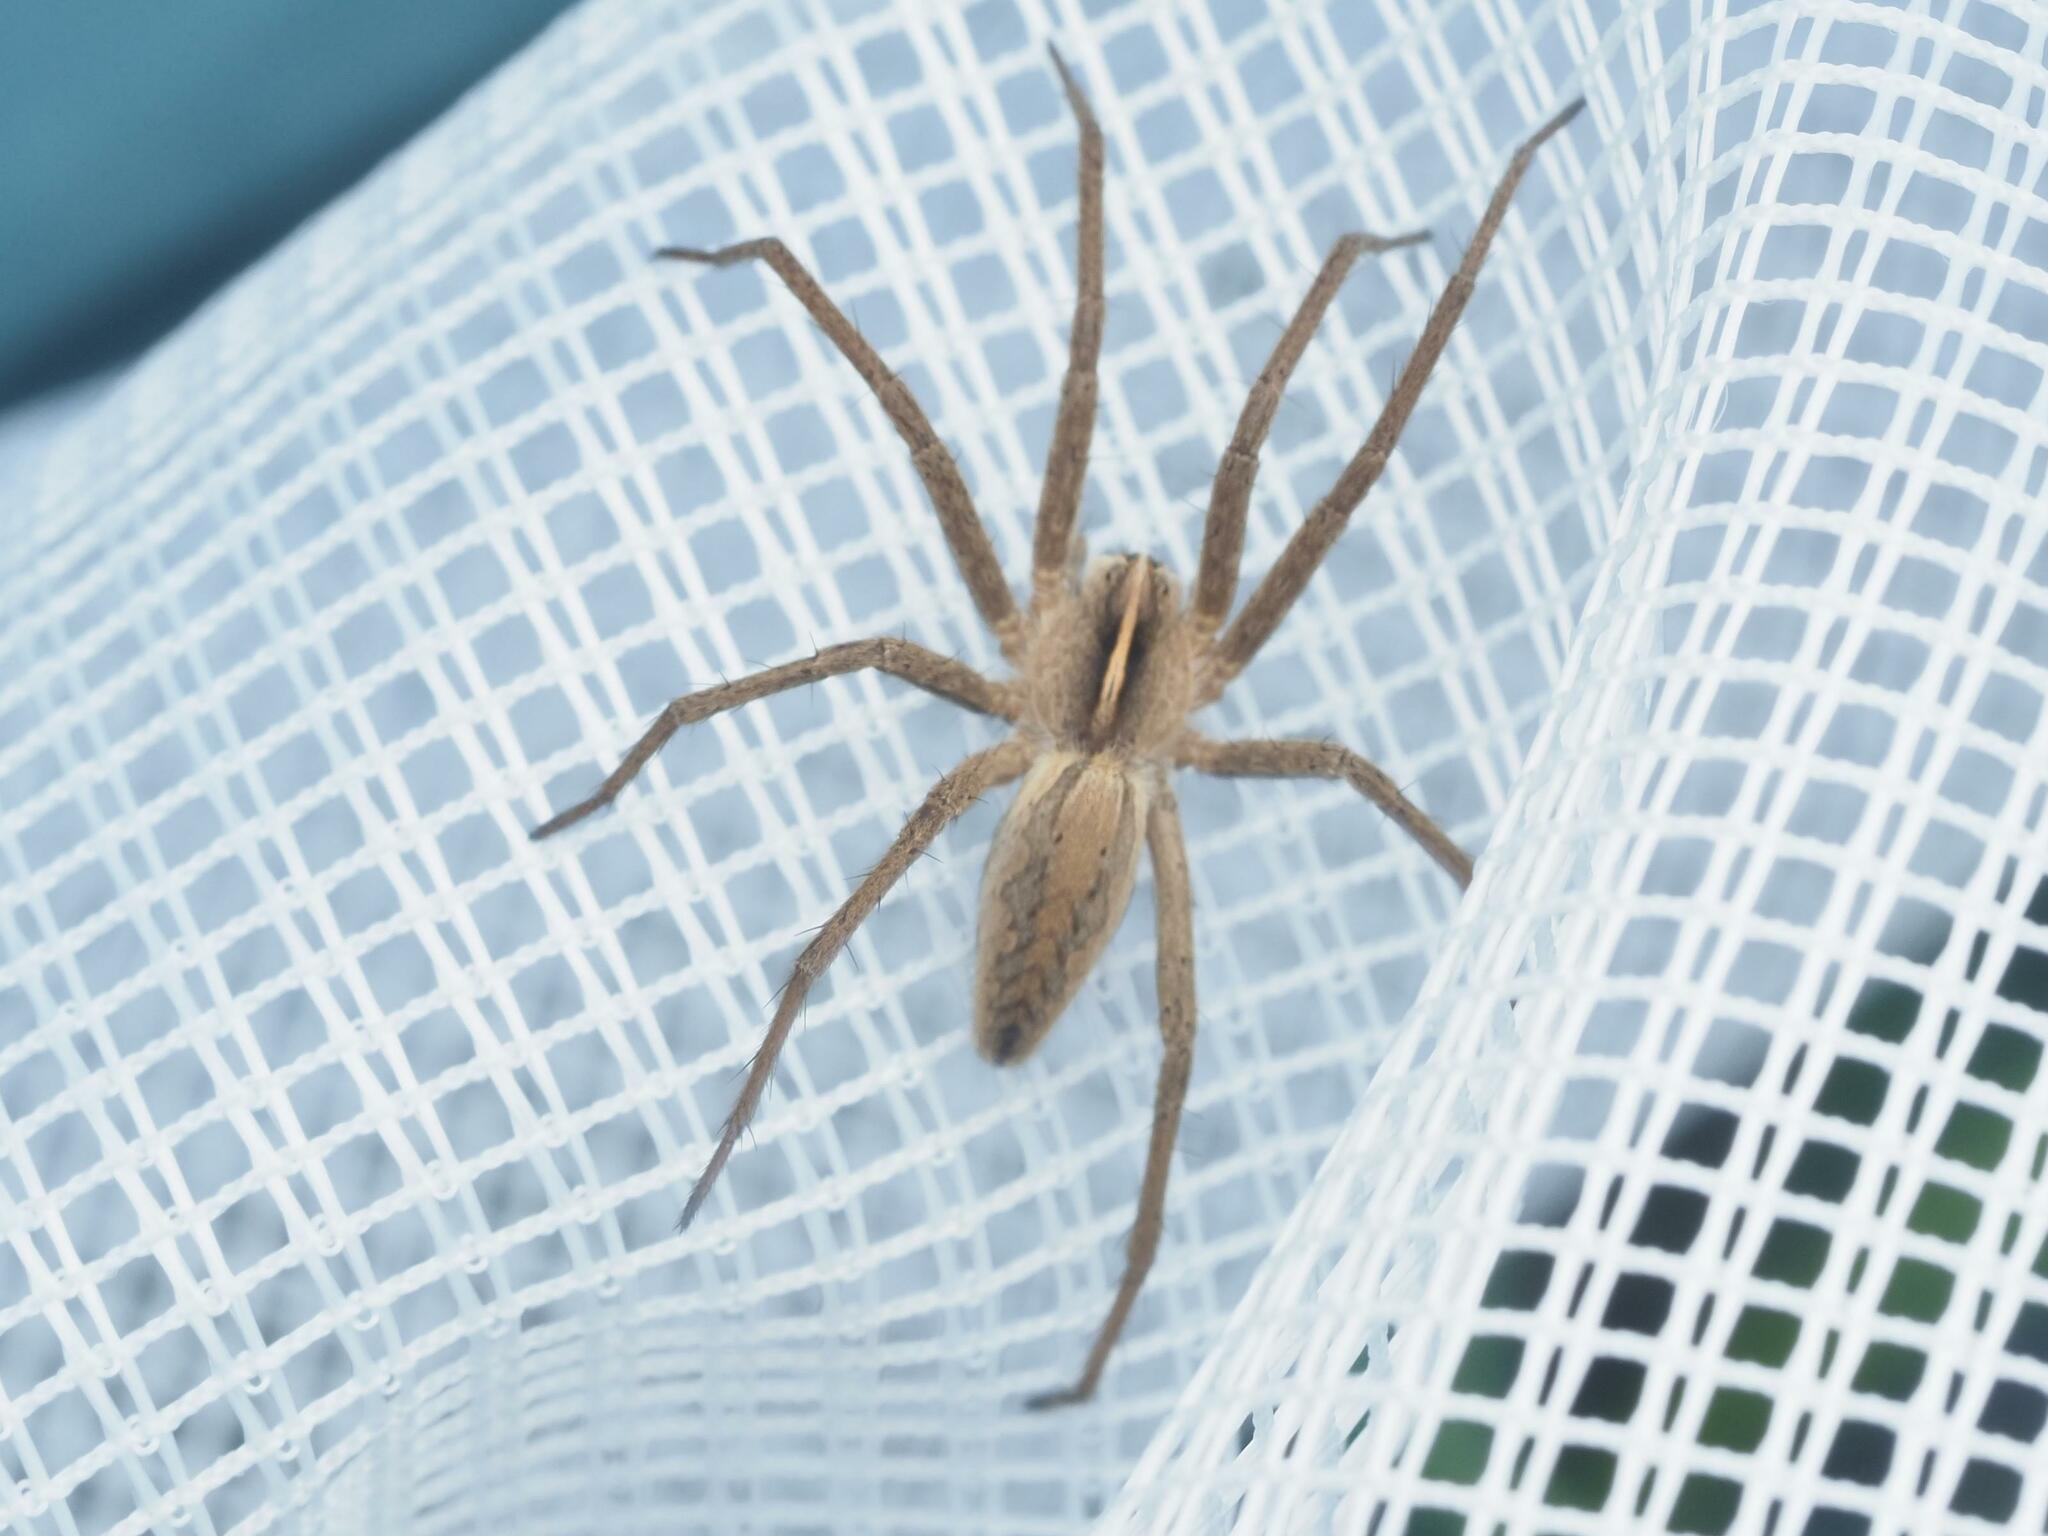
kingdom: Animalia
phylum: Arthropoda
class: Arachnida
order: Araneae
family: Pisauridae
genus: Pisaura
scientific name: Pisaura mirabilis
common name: Tent spider
